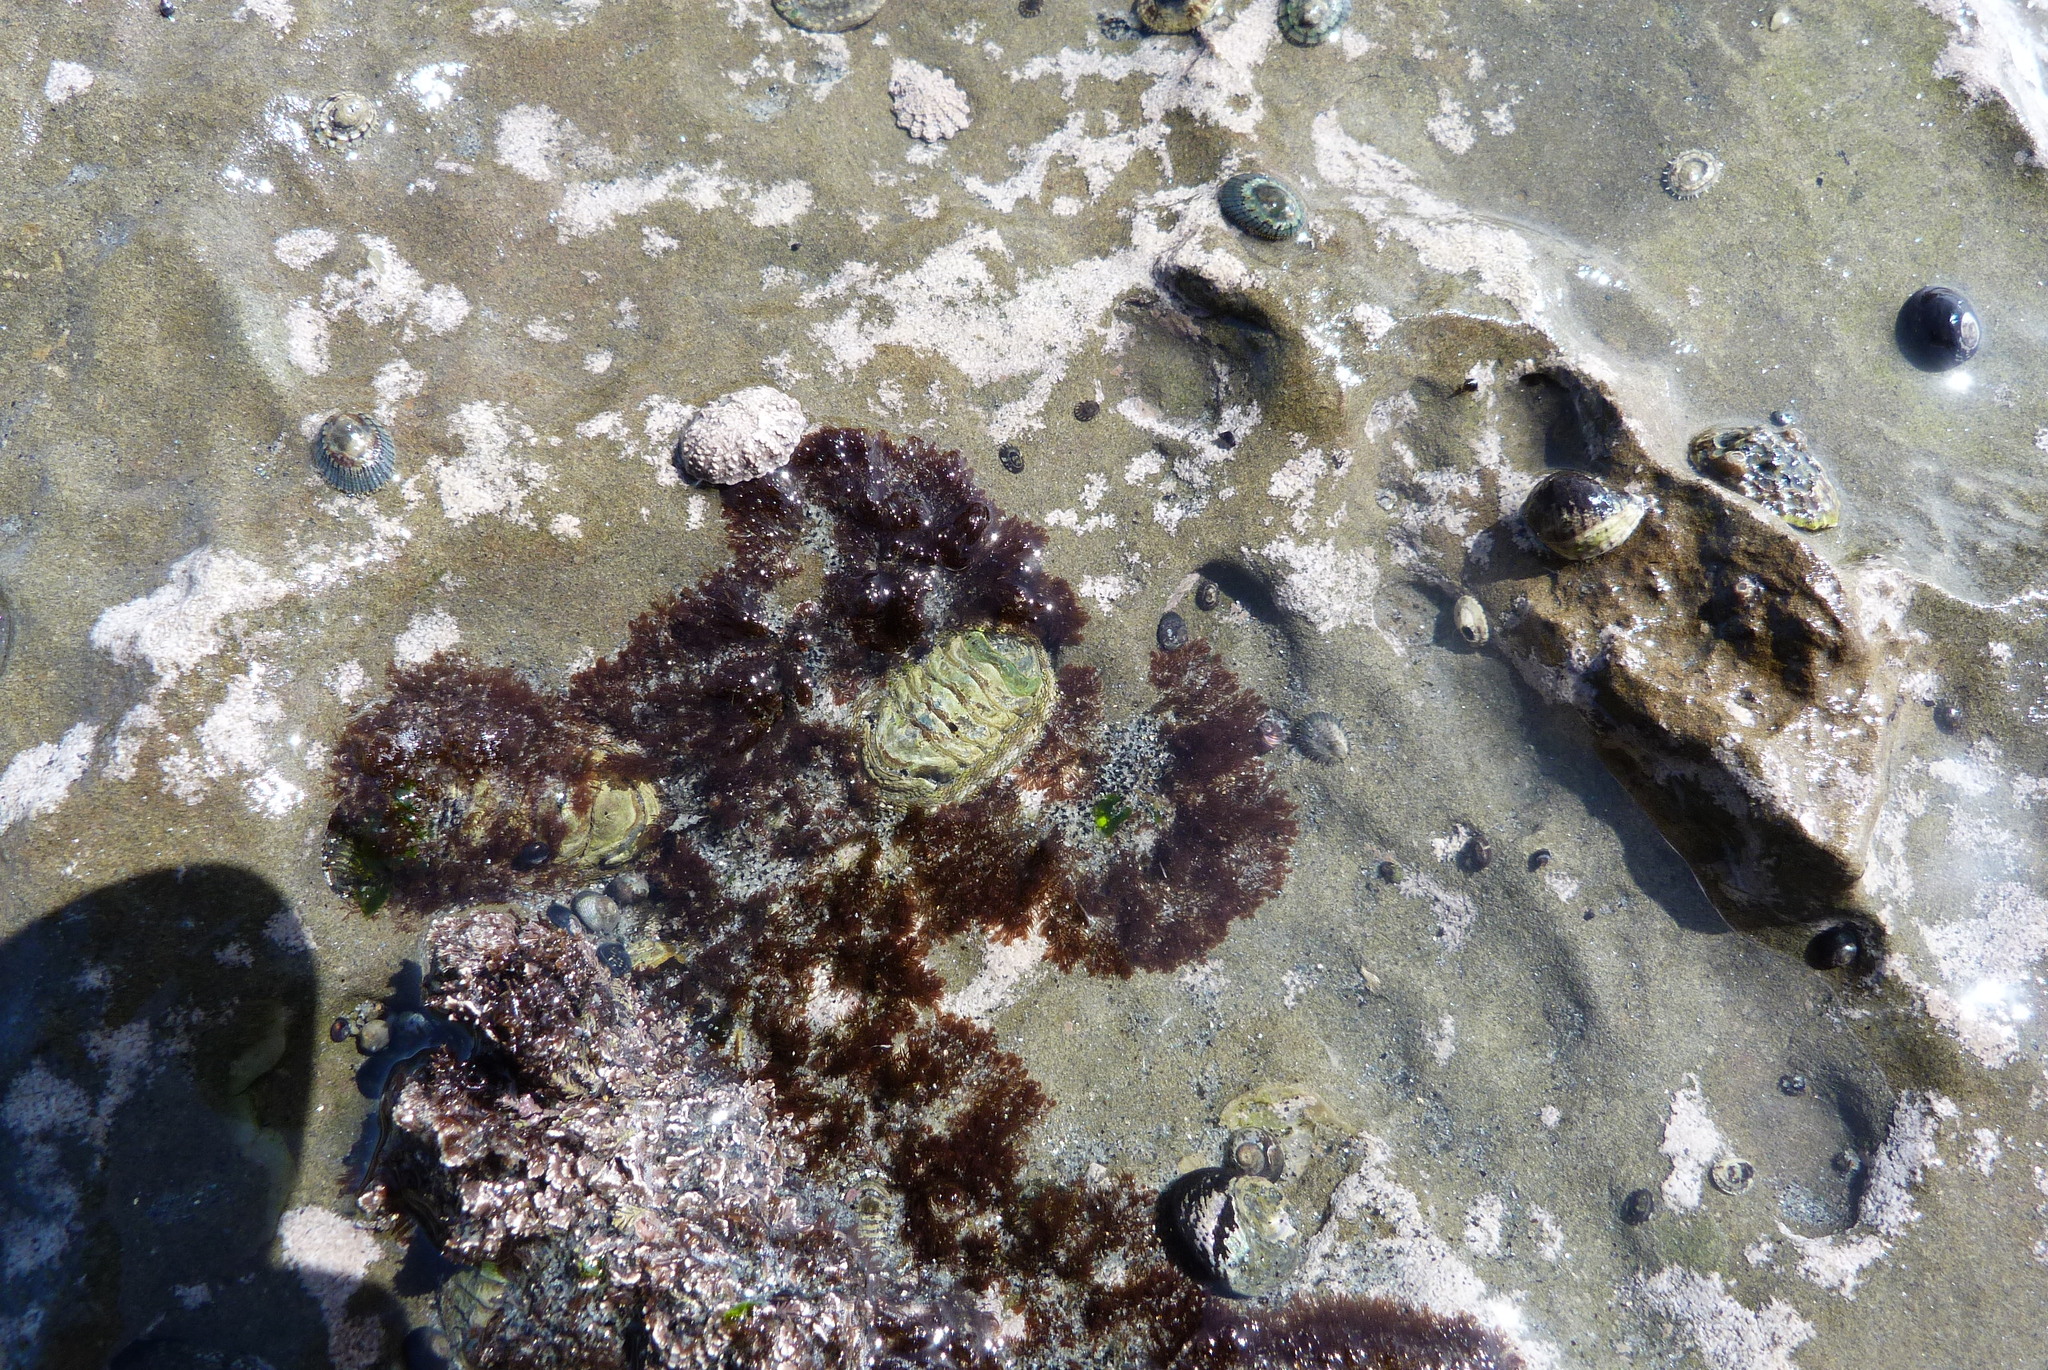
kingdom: Animalia
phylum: Mollusca
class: Polyplacophora
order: Chitonida
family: Chitonidae
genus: Sypharochiton
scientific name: Sypharochiton pelliserpentis
